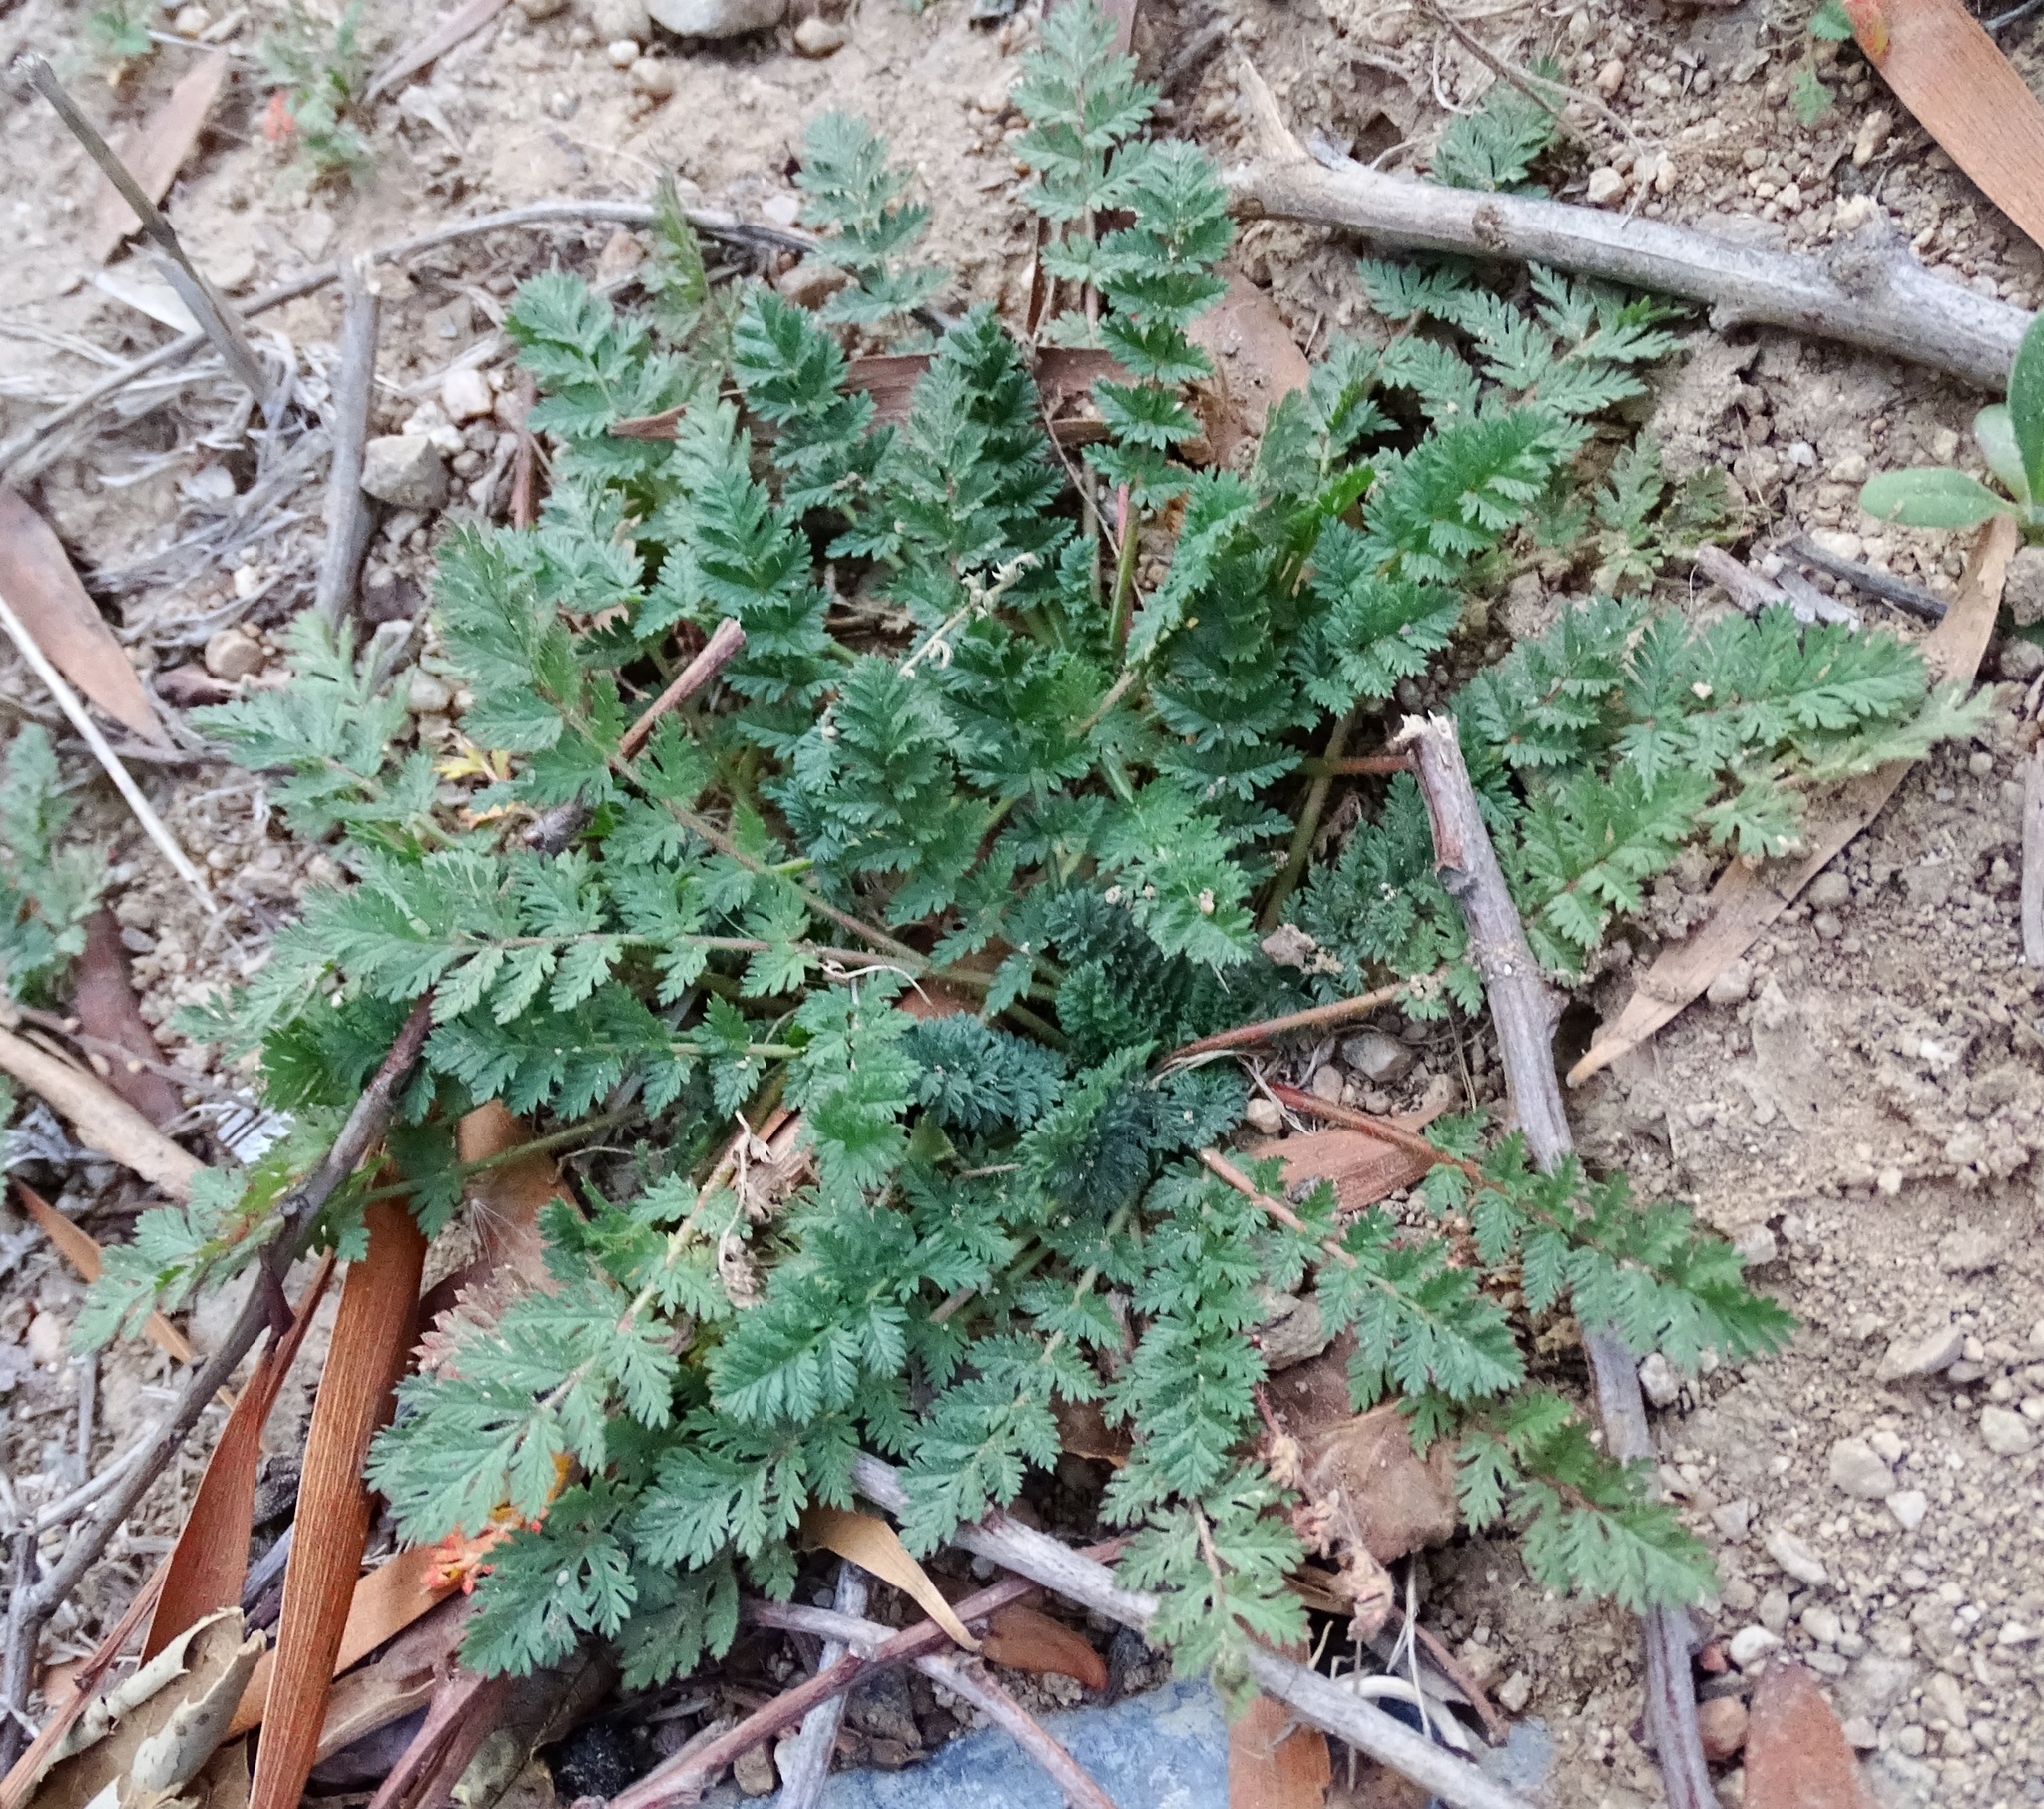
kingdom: Plantae
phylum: Tracheophyta
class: Magnoliopsida
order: Geraniales
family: Geraniaceae
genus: Erodium
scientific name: Erodium cicutarium
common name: Common stork's-bill
